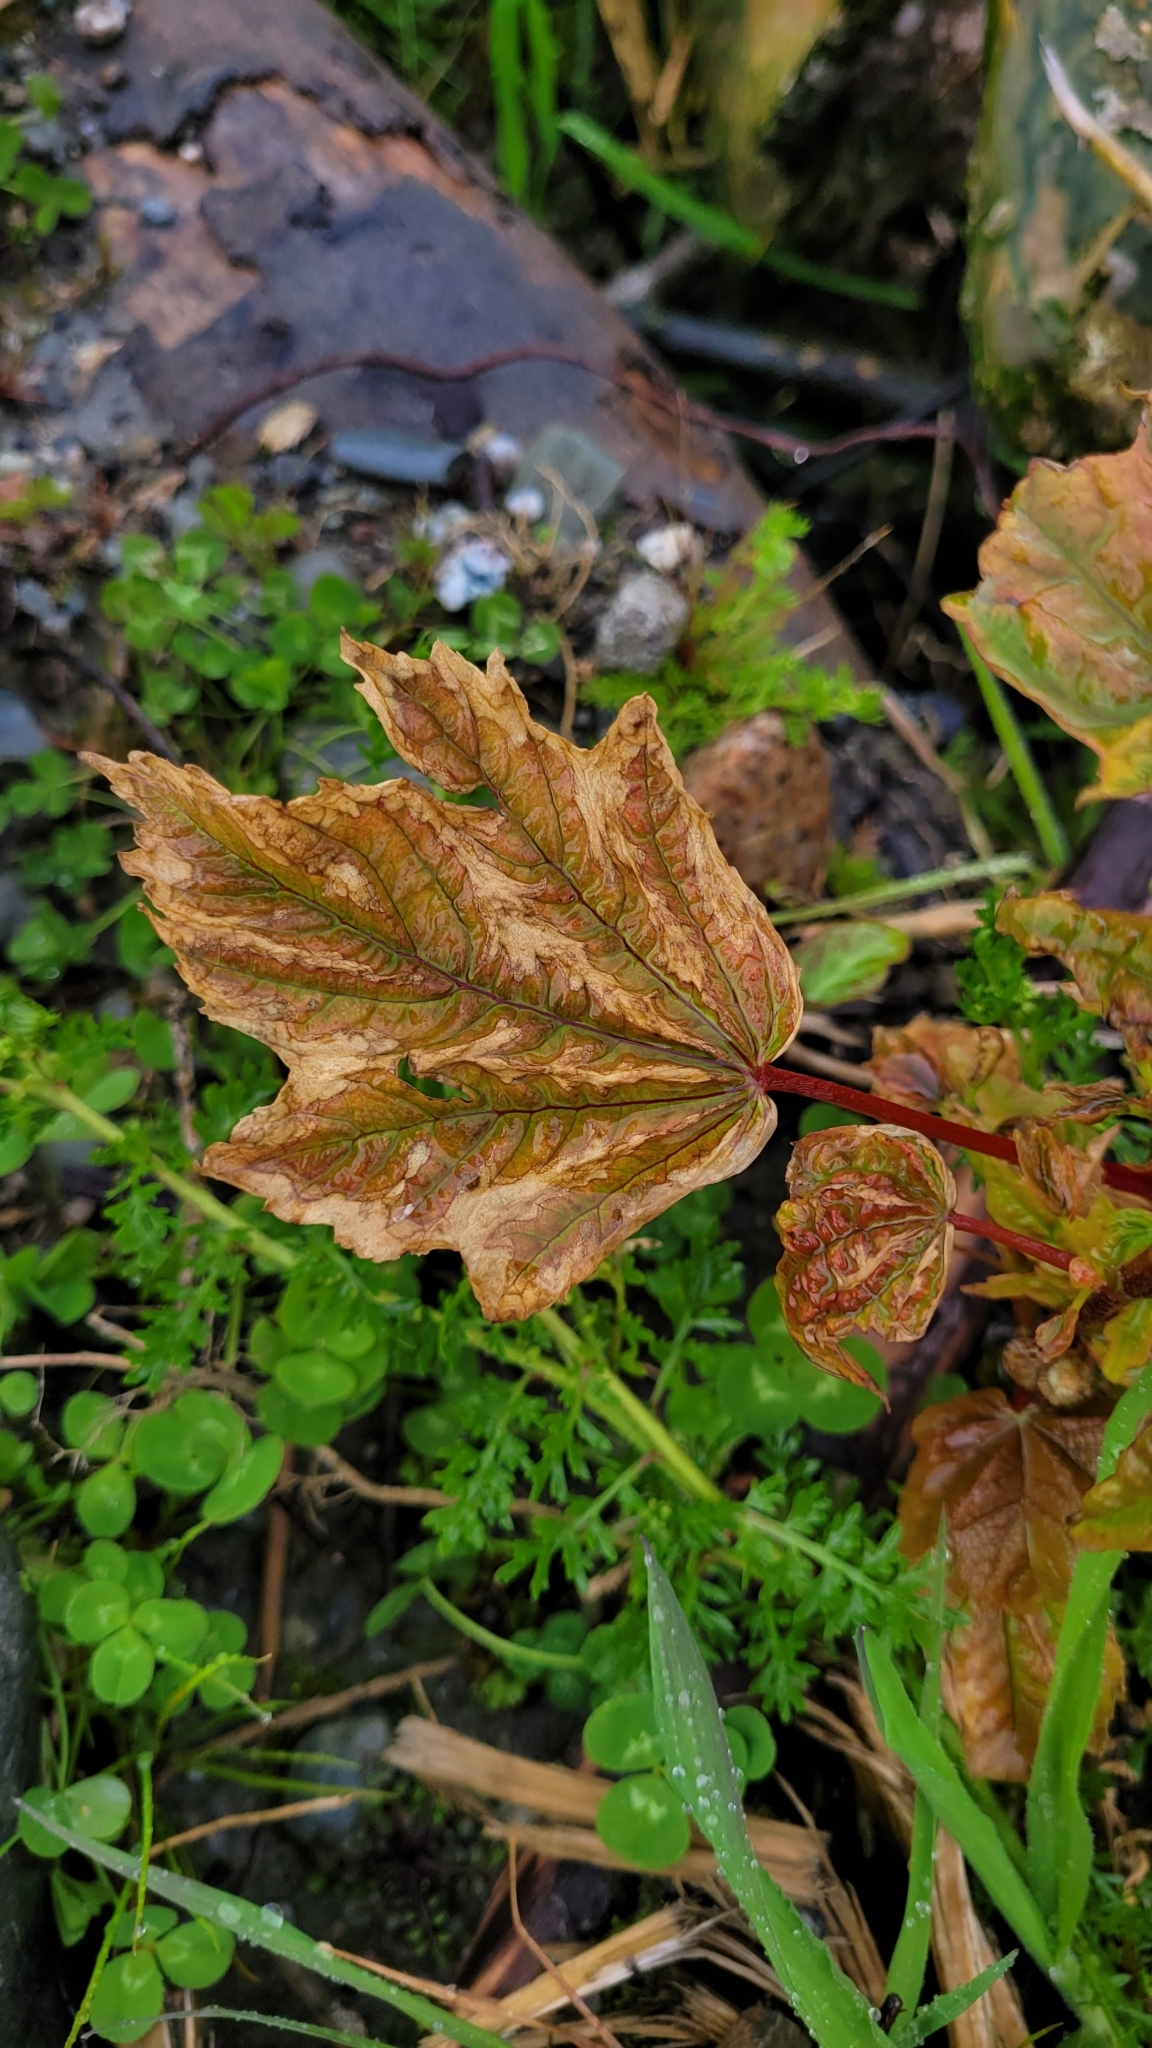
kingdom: Plantae
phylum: Tracheophyta
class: Magnoliopsida
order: Sapindales
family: Sapindaceae
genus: Acer
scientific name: Acer pseudoplatanus
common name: Sycamore
